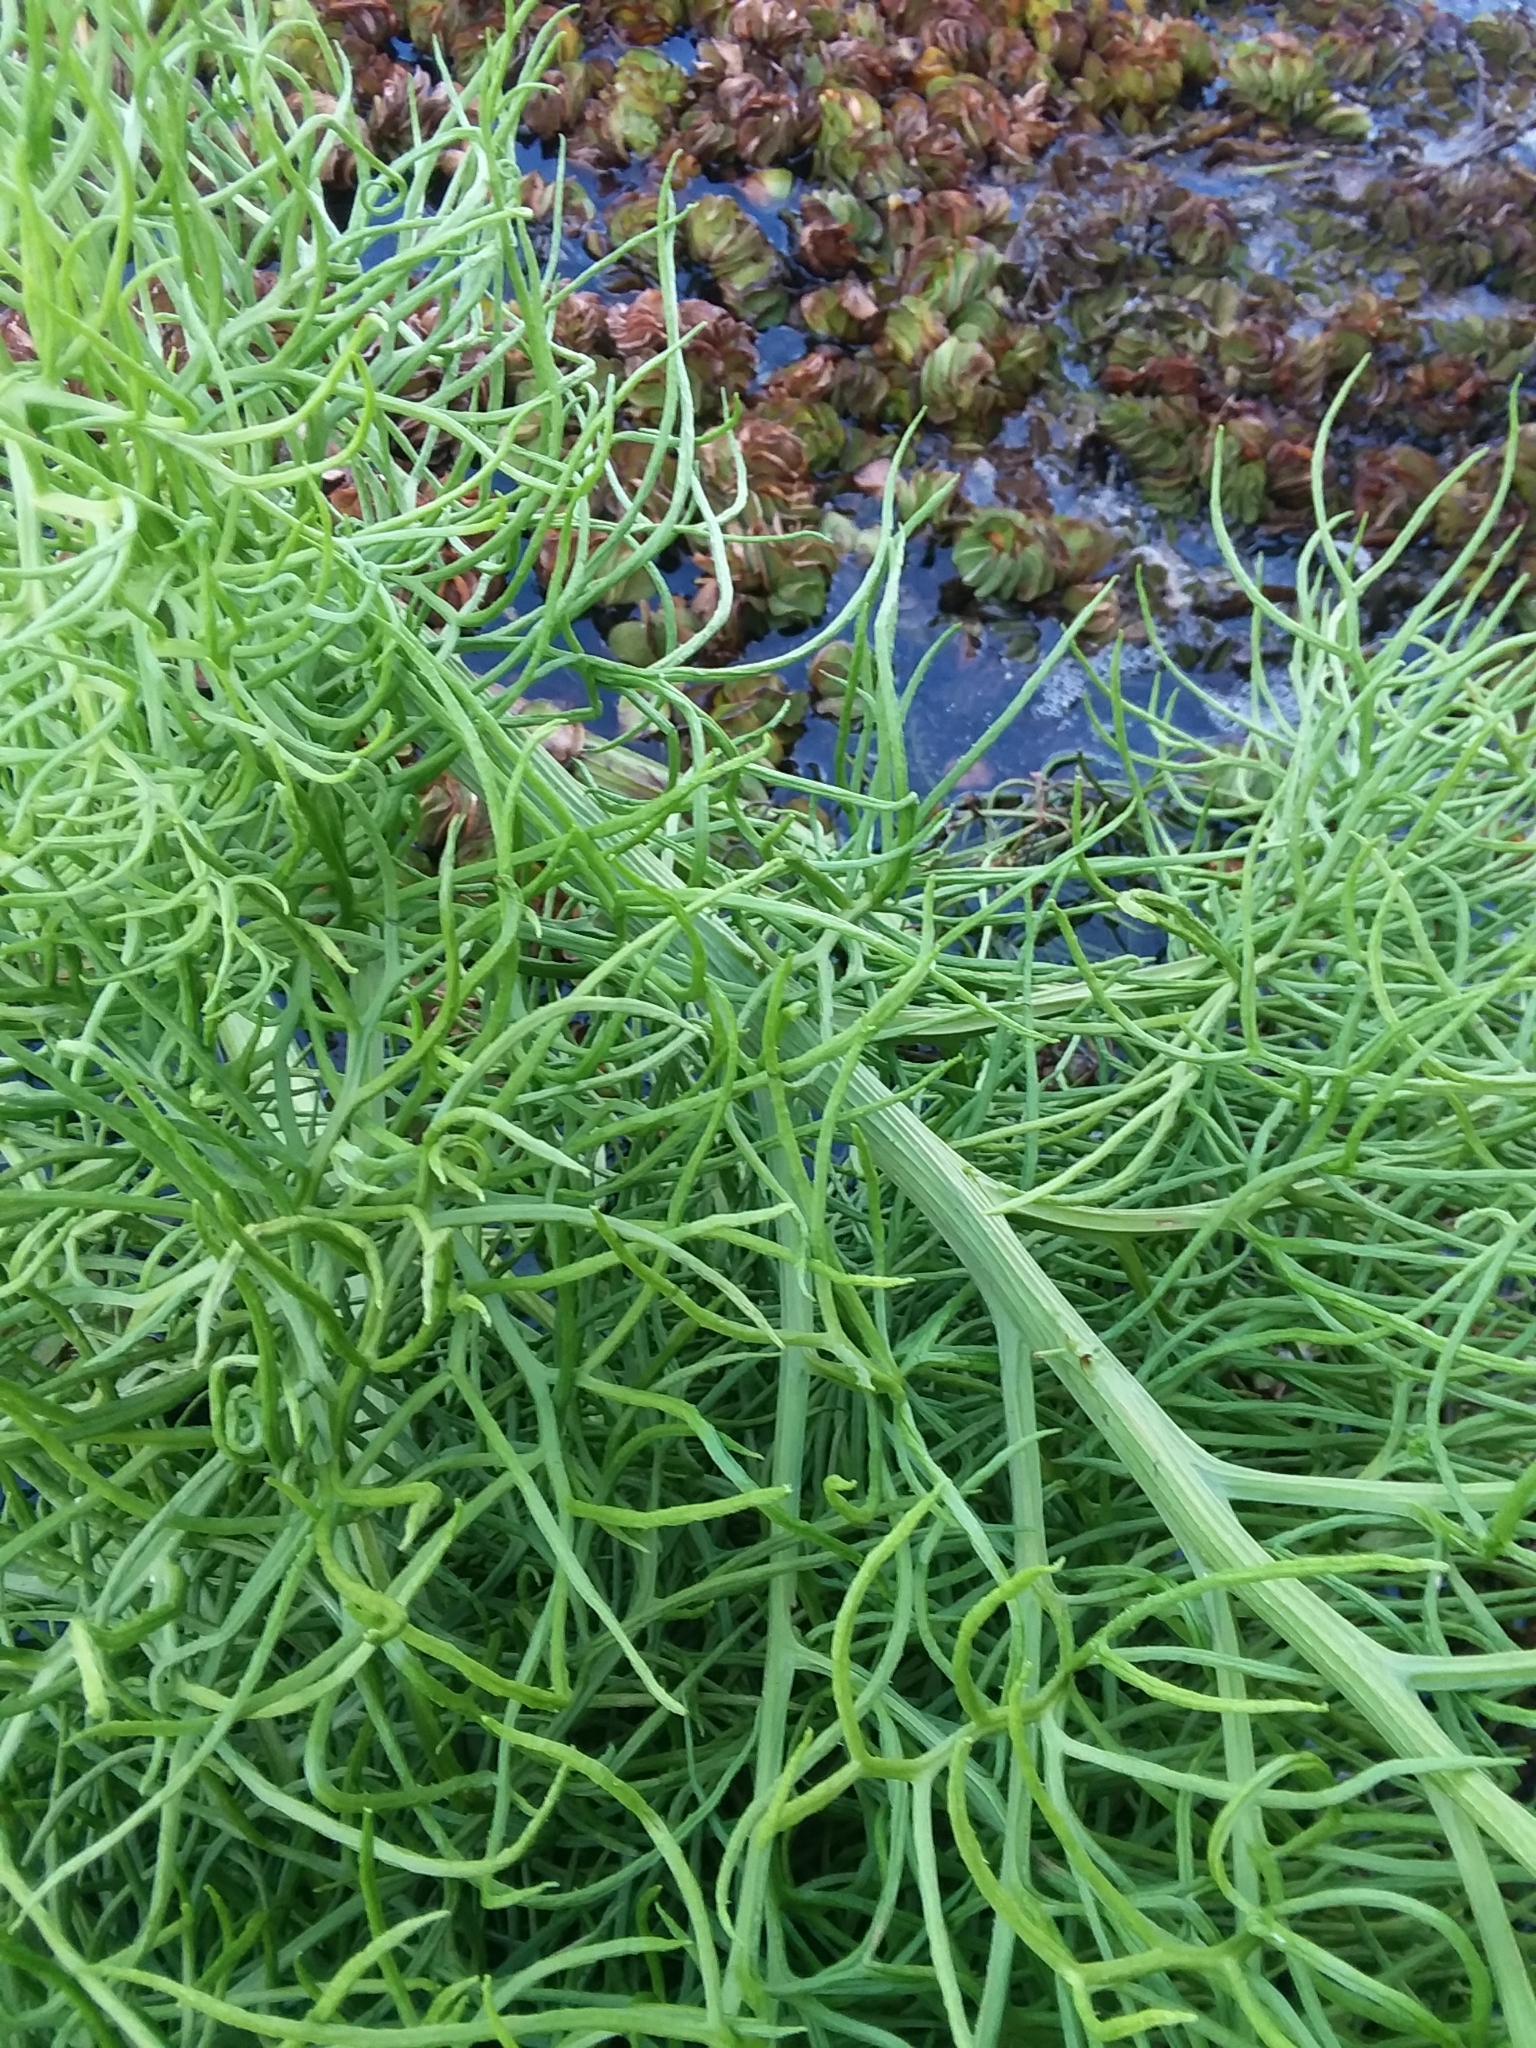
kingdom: Plantae
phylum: Tracheophyta
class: Polypodiopsida
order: Polypodiales
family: Pteridaceae
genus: Ceratopteris
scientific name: Ceratopteris thalictroides
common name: Water fern
